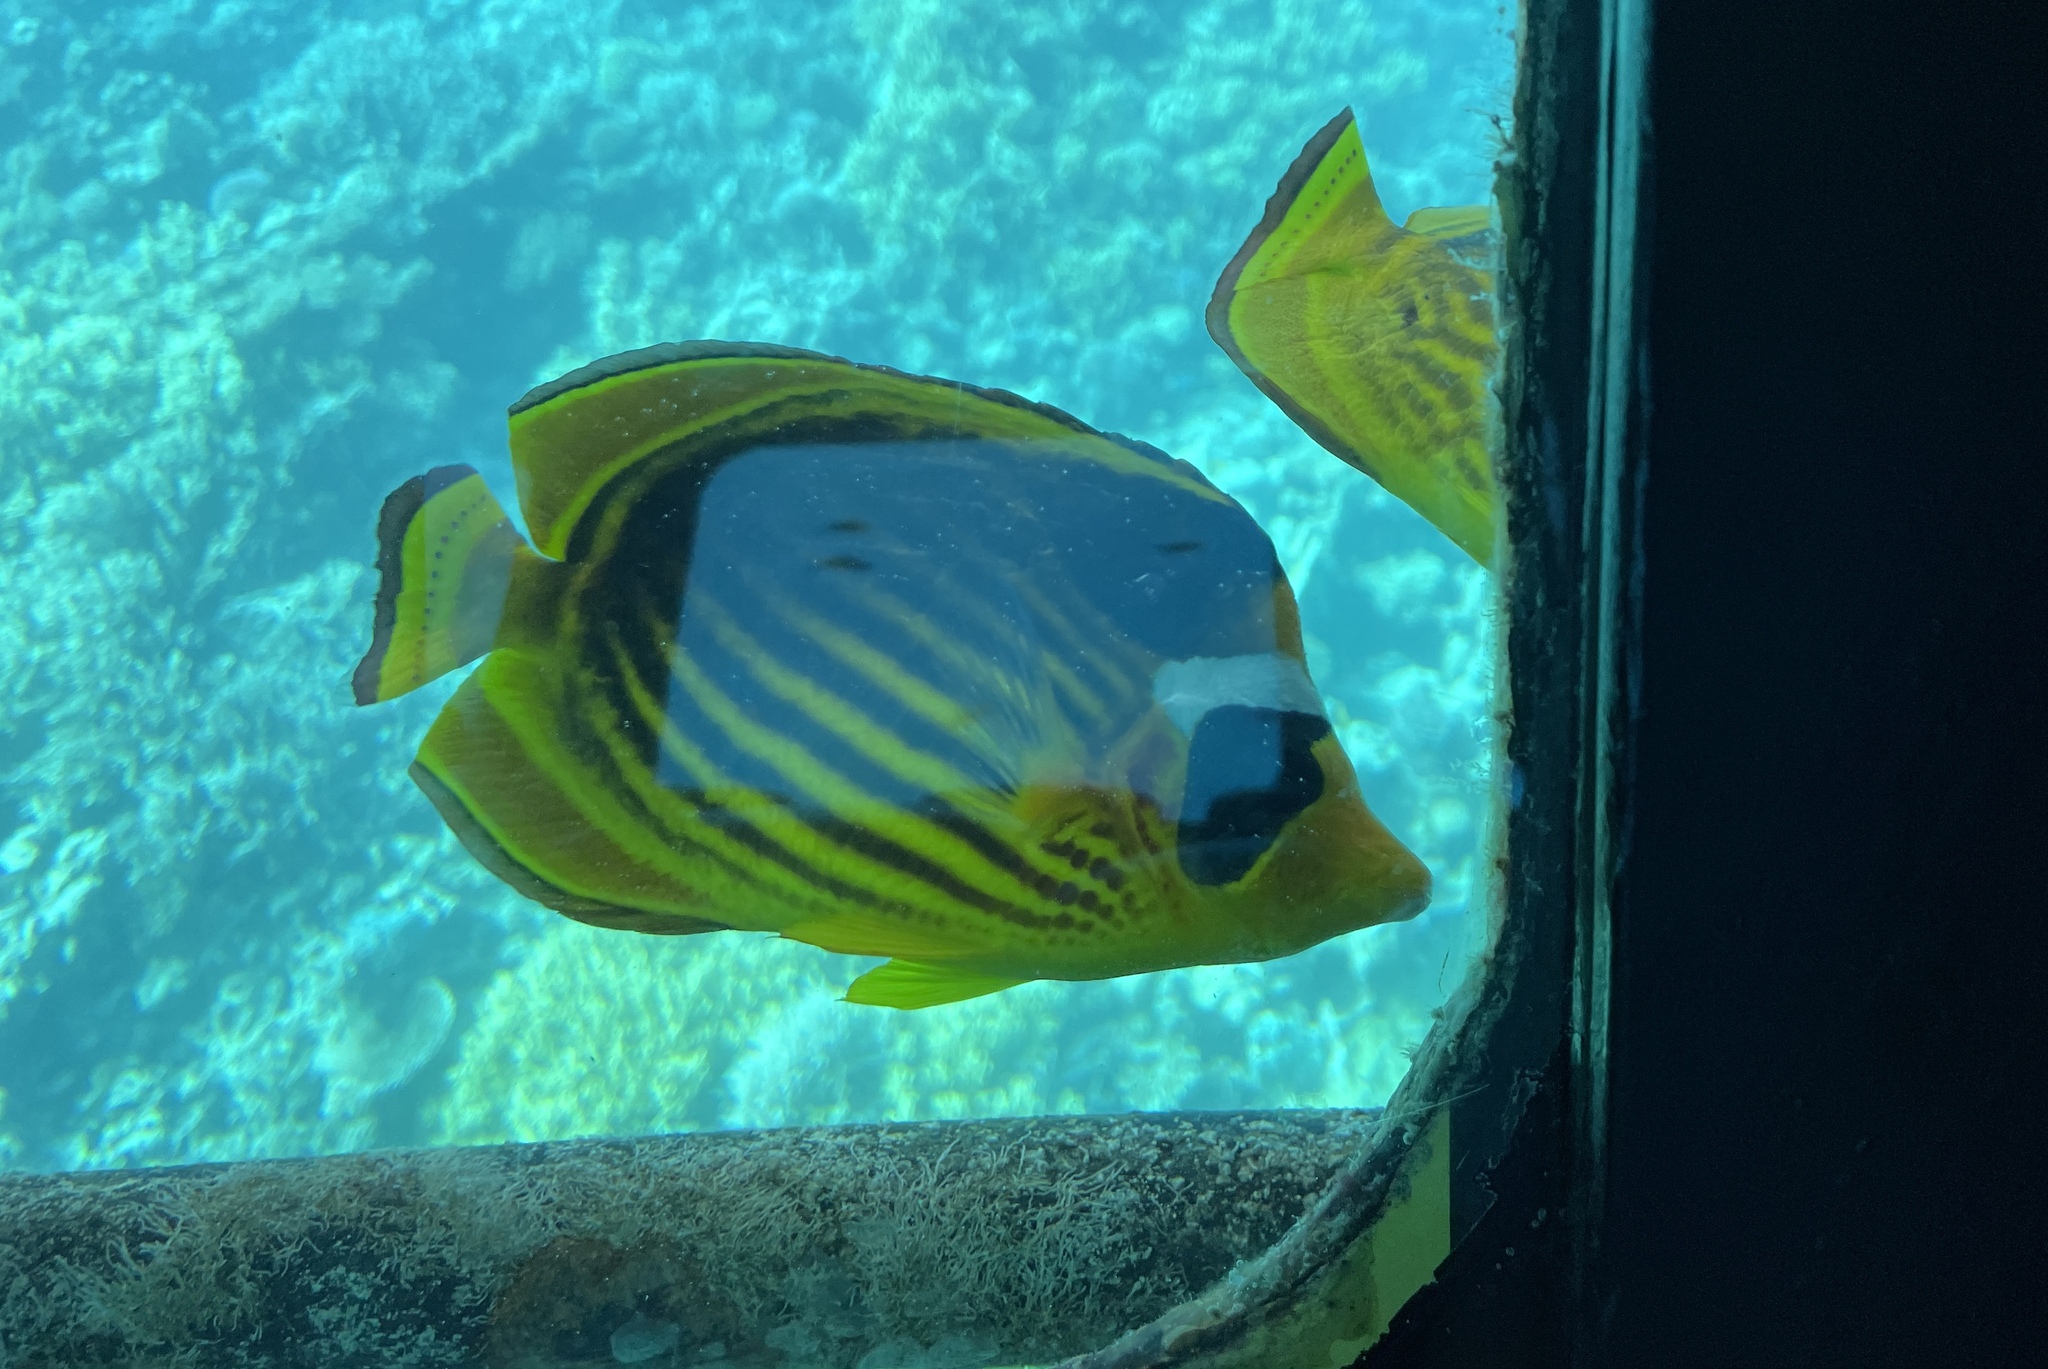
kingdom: Animalia
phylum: Chordata
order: Perciformes
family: Chaetodontidae
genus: Chaetodon
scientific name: Chaetodon fasciatus
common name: Diagonal butterflyfish
